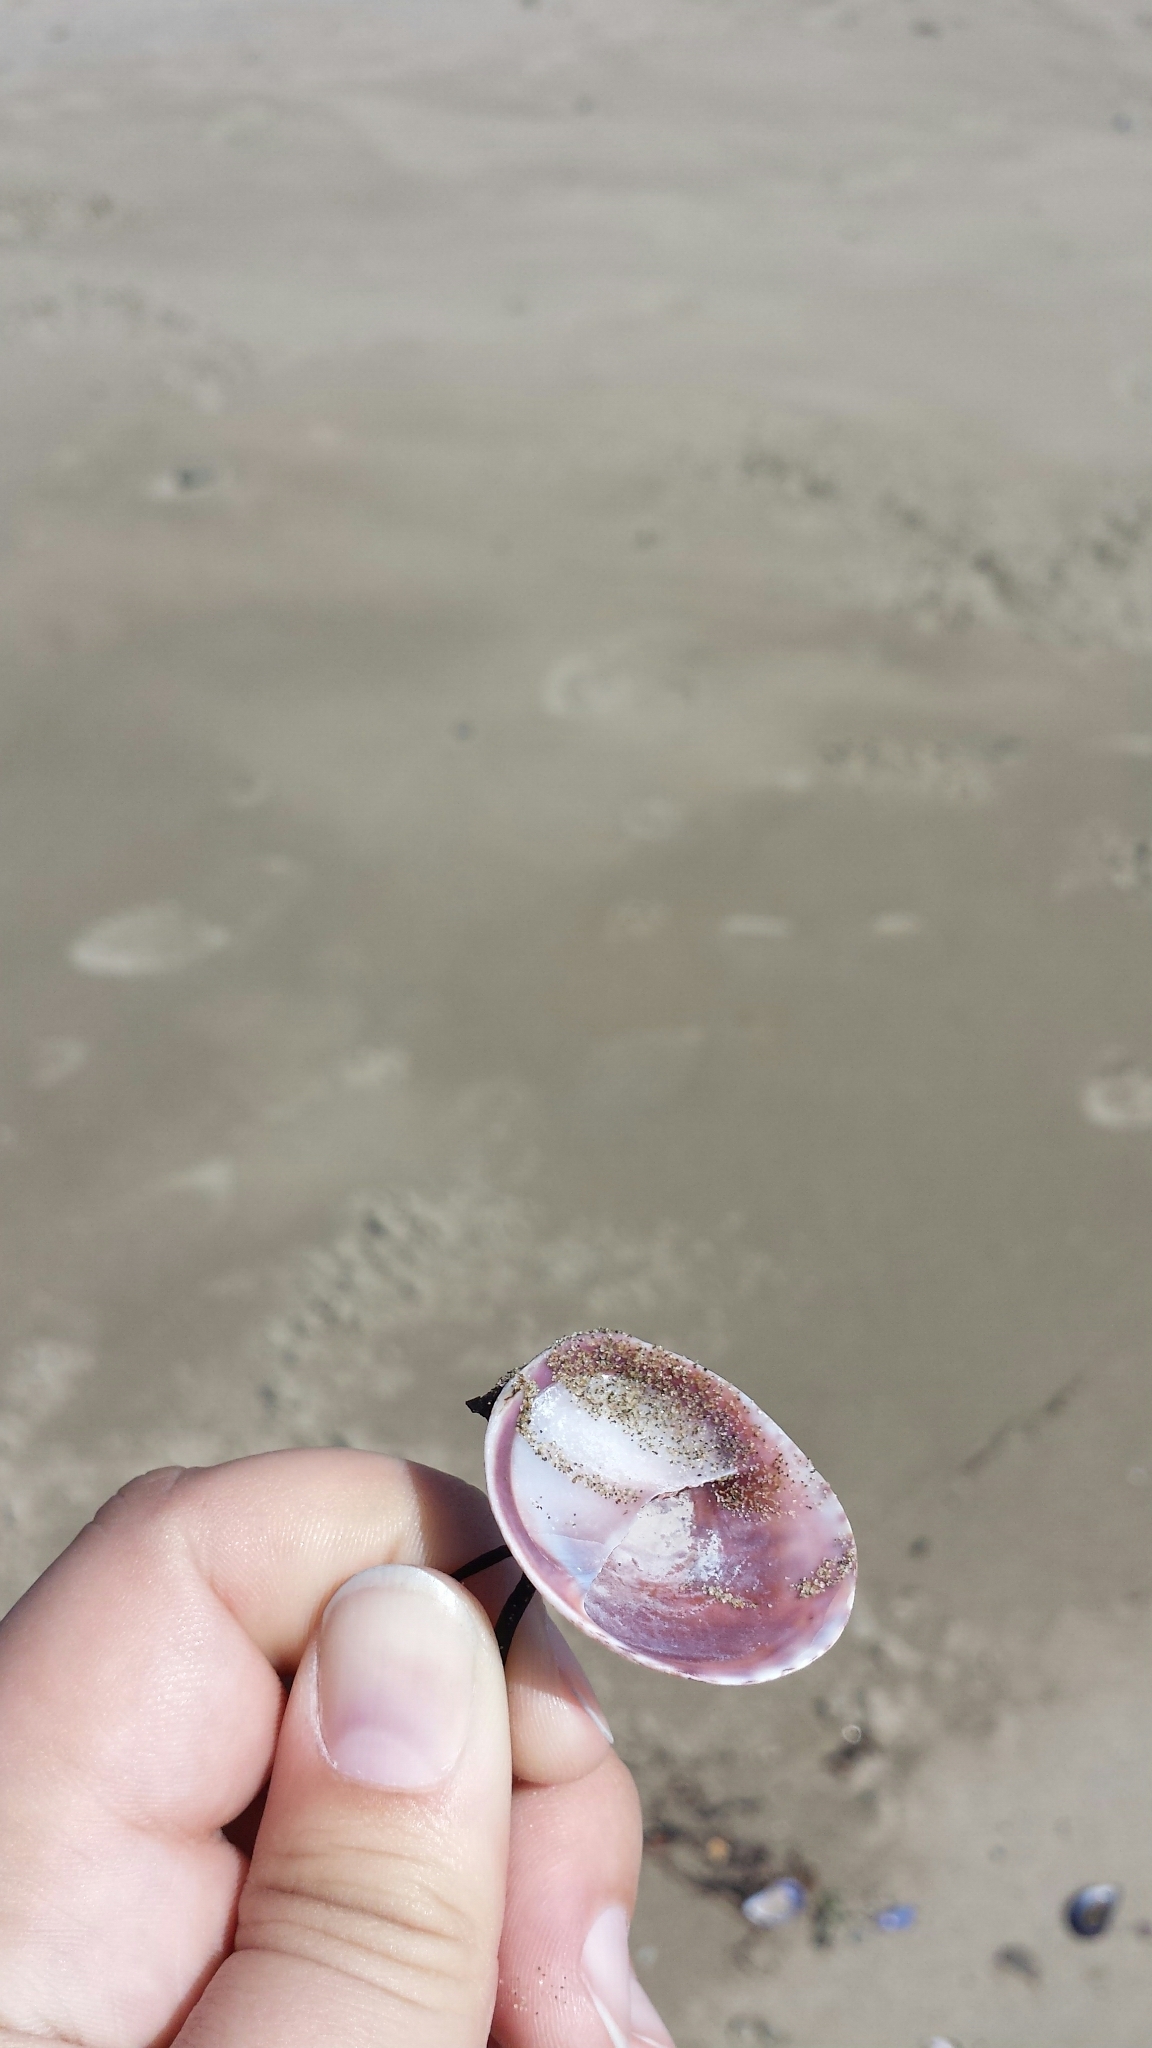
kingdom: Animalia
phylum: Mollusca
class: Gastropoda
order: Littorinimorpha
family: Calyptraeidae
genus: Crepidula
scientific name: Crepidula fornicata
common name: Slipper limpet
